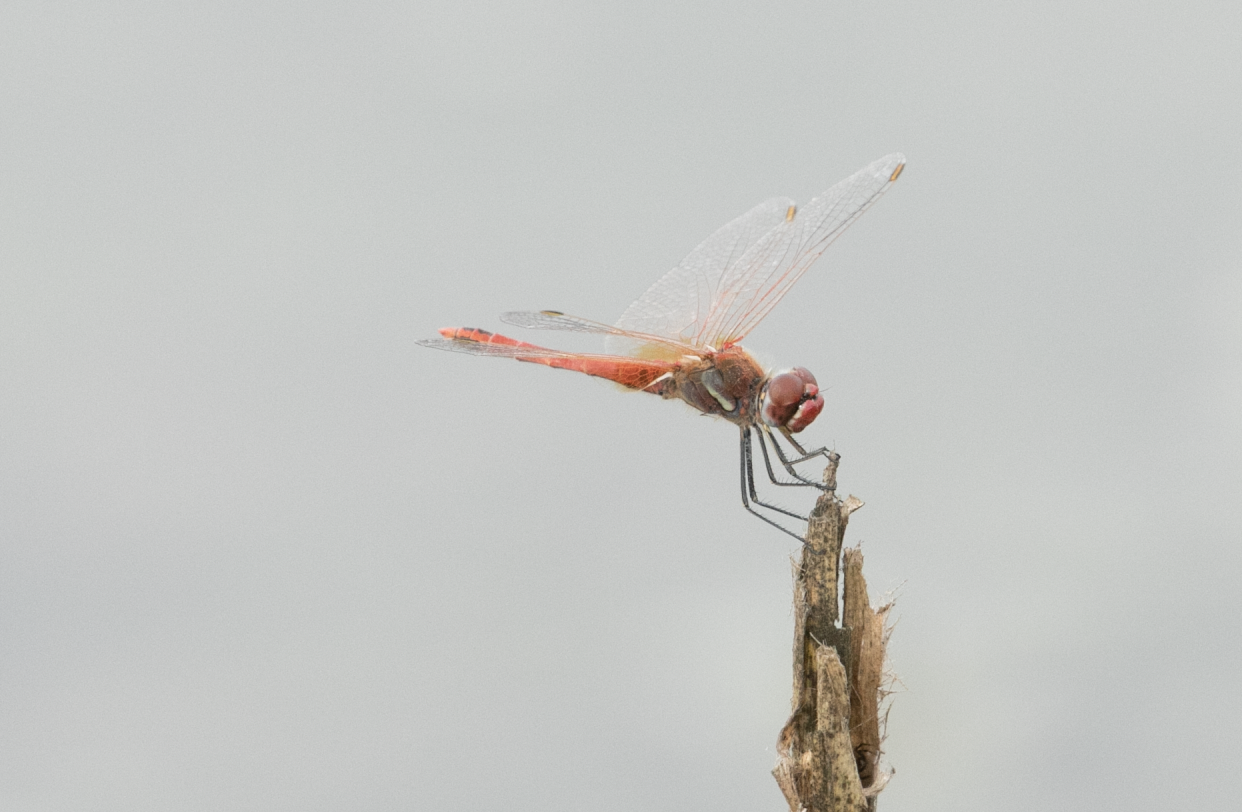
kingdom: Animalia
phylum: Arthropoda
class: Insecta
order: Odonata
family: Libellulidae
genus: Sympetrum
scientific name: Sympetrum fonscolombii
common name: Red-veined darter
